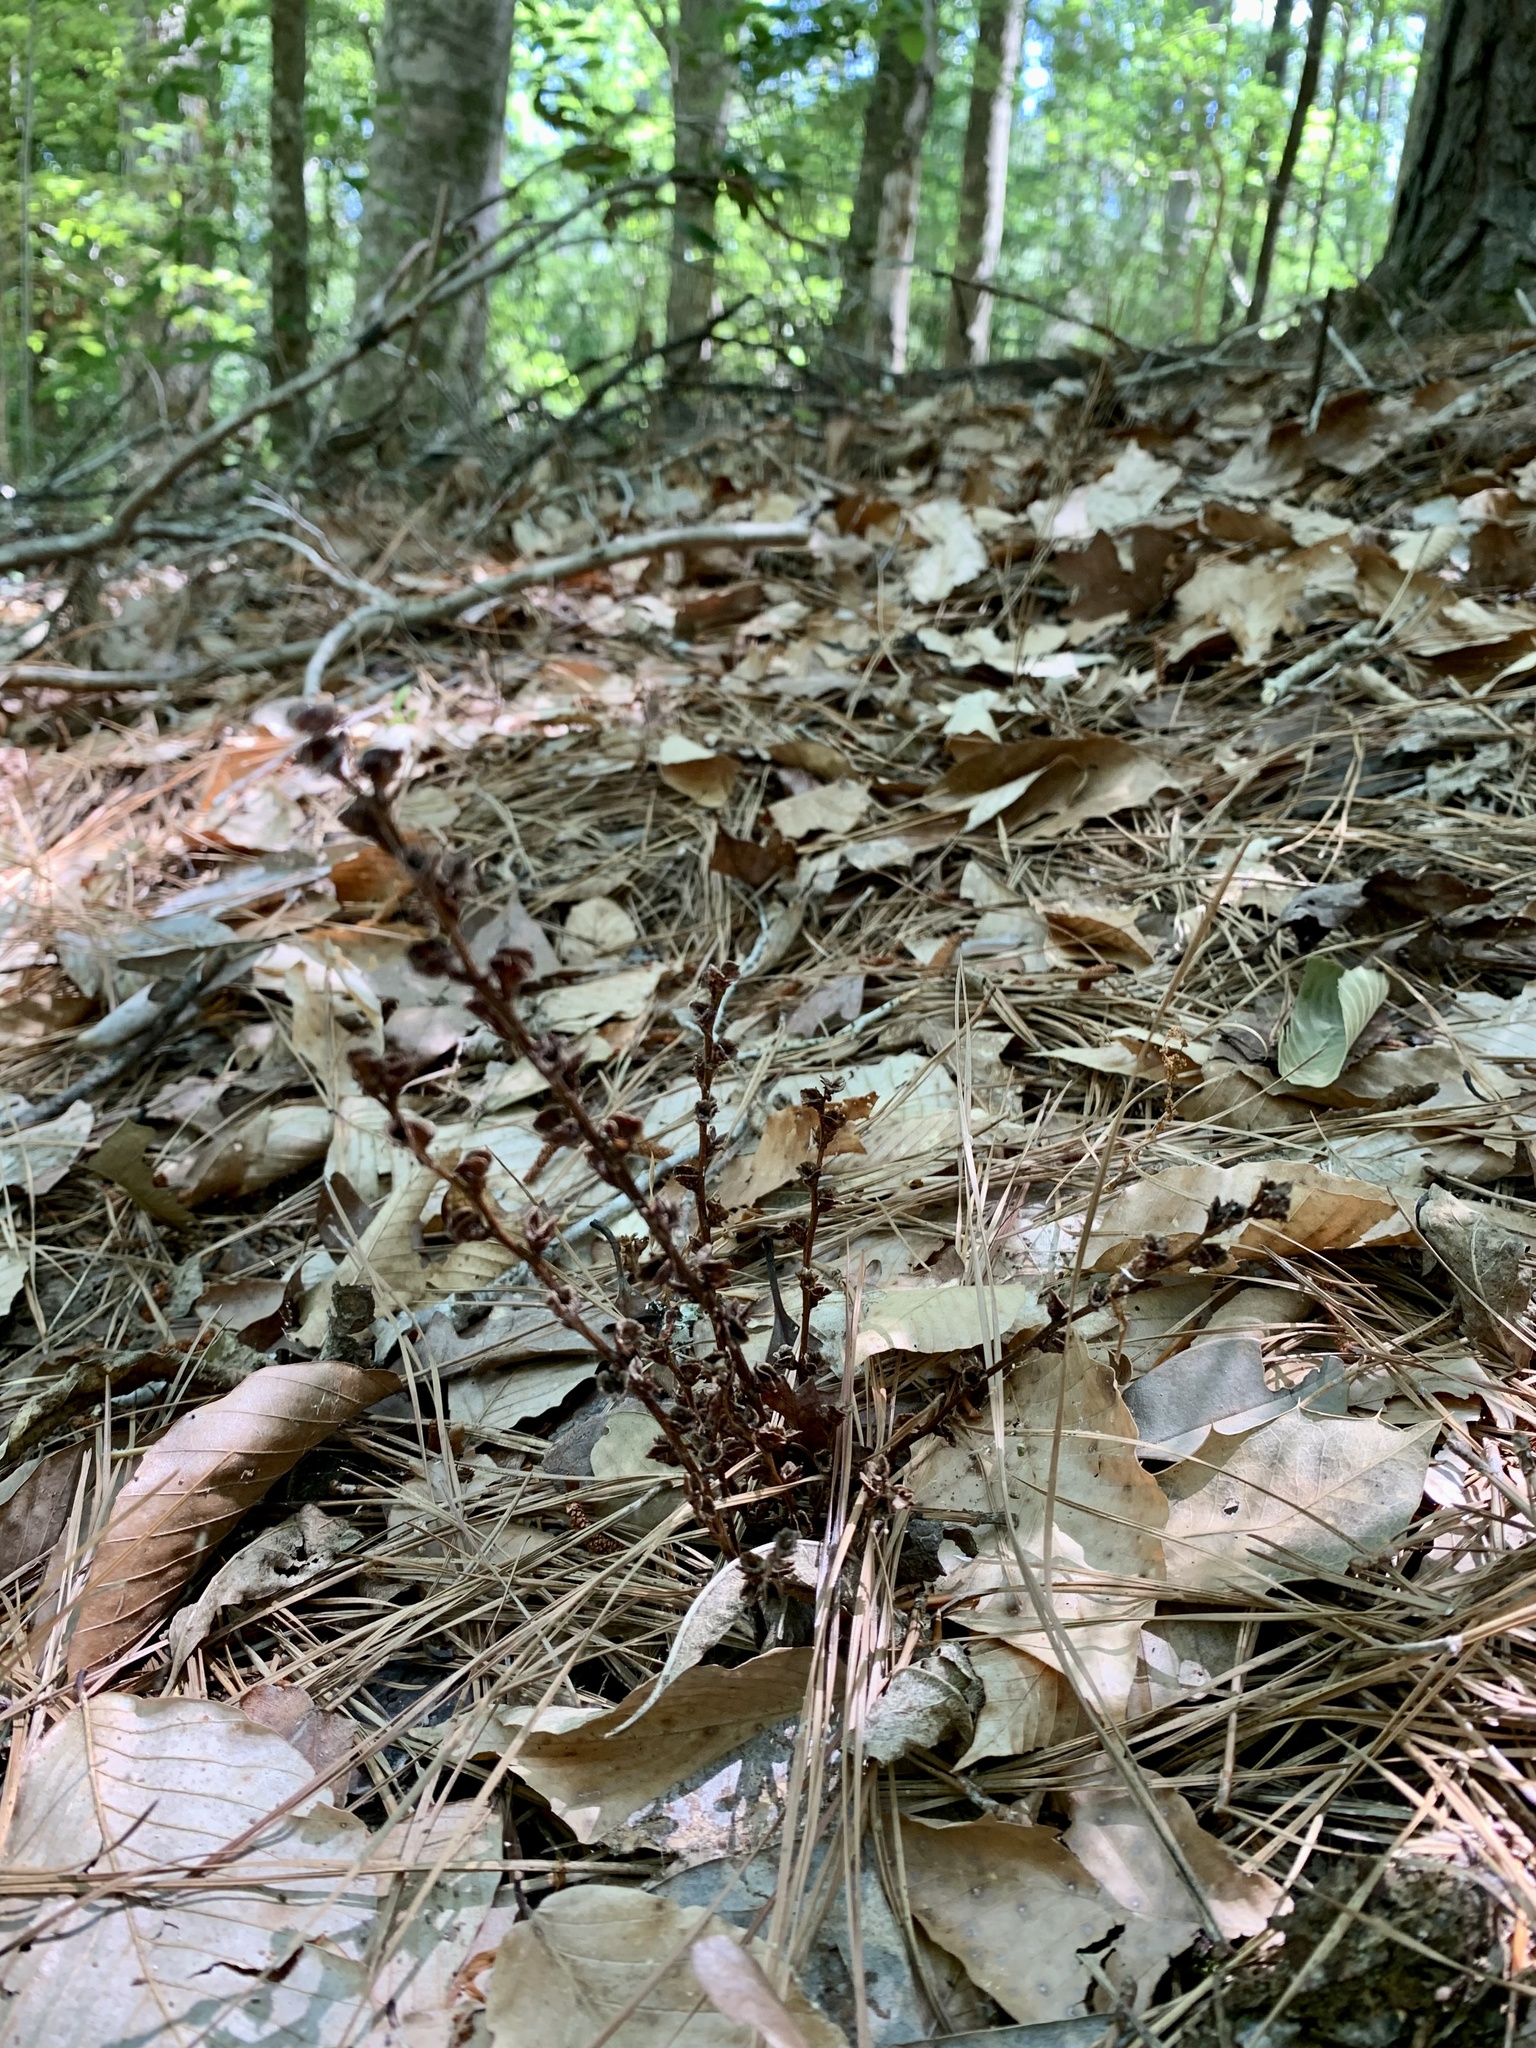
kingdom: Plantae
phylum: Tracheophyta
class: Magnoliopsida
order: Lamiales
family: Orobanchaceae
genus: Epifagus
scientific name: Epifagus virginiana
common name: Beechdrops
